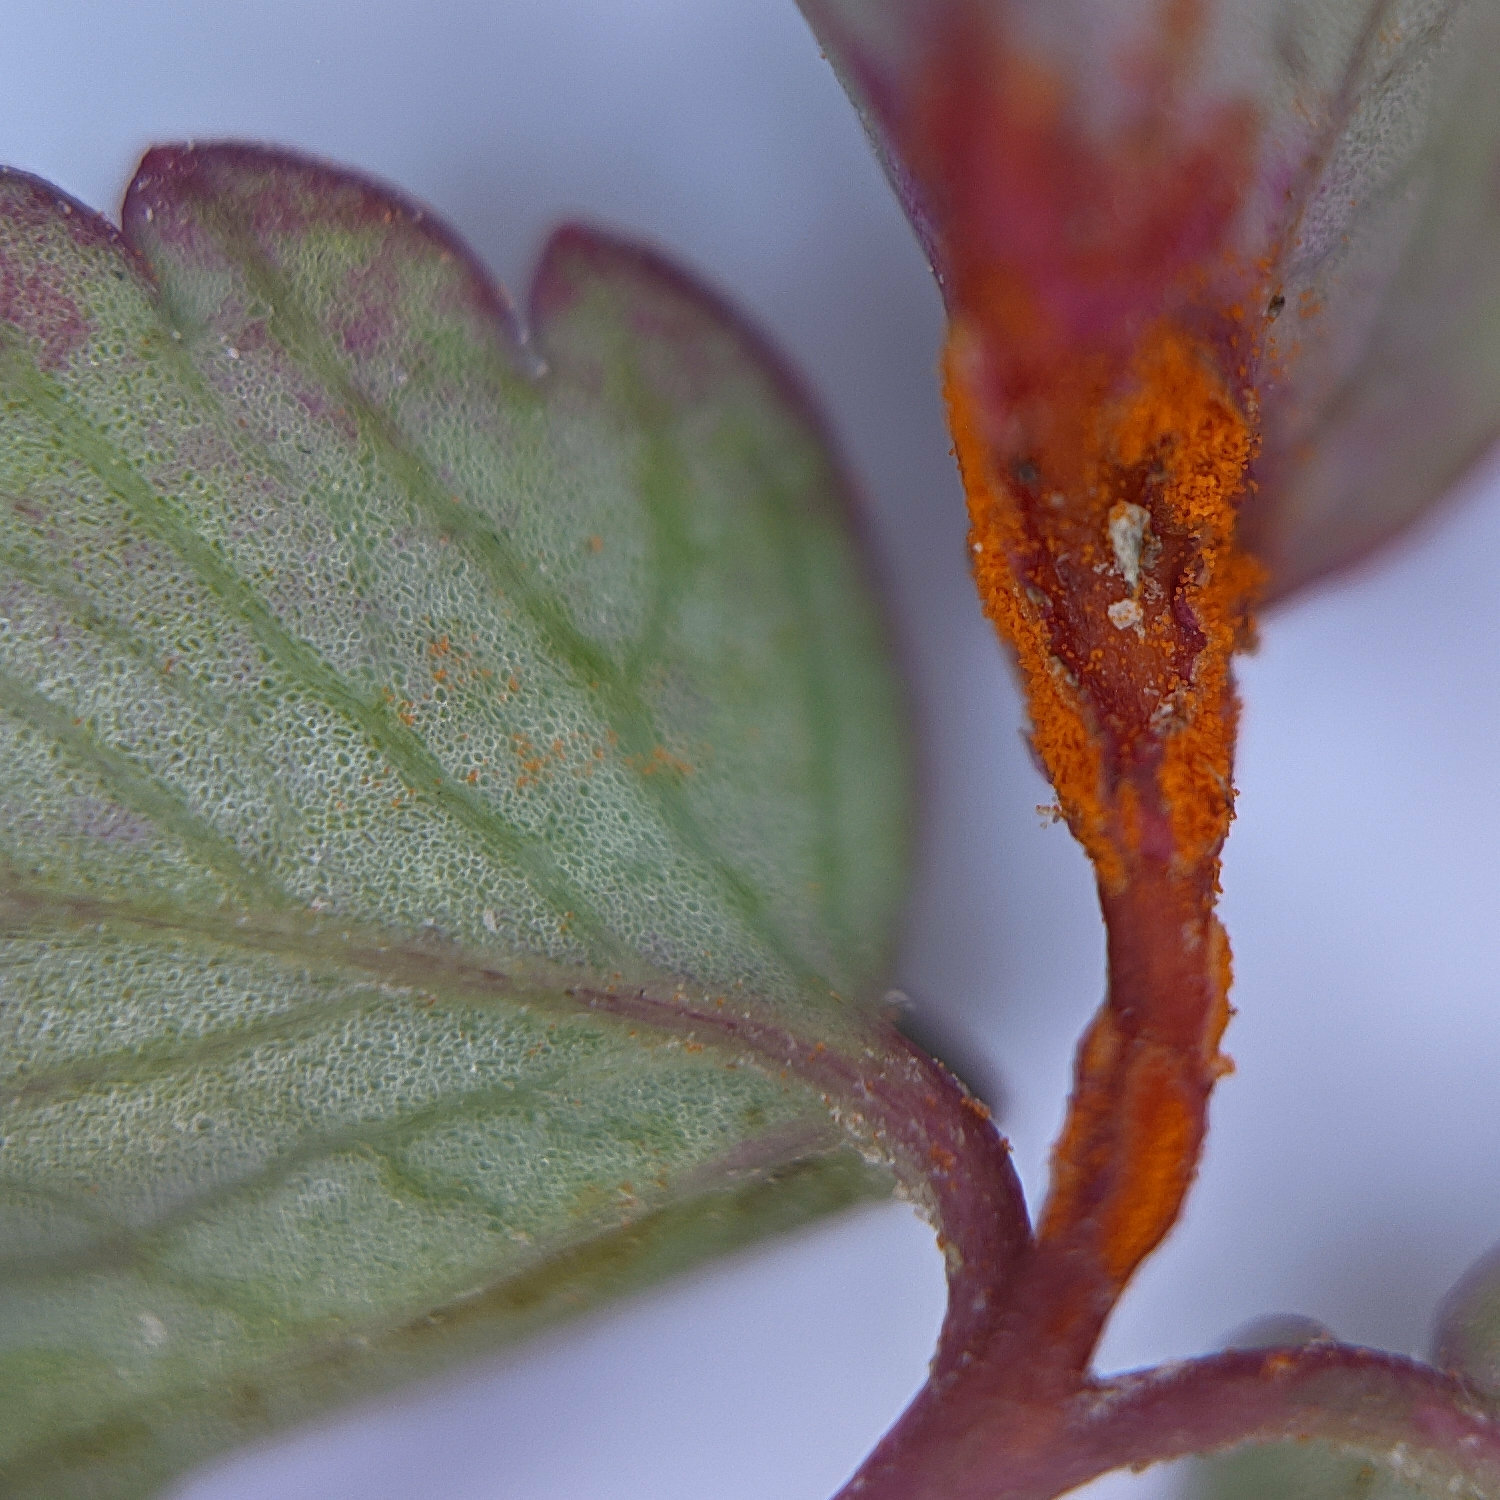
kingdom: Fungi
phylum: Basidiomycota
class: Pucciniomycetes
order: Pucciniales
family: Phragmidiaceae
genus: Phragmidium
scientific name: Phragmidium sanguisorbae
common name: Salad burnet rust
